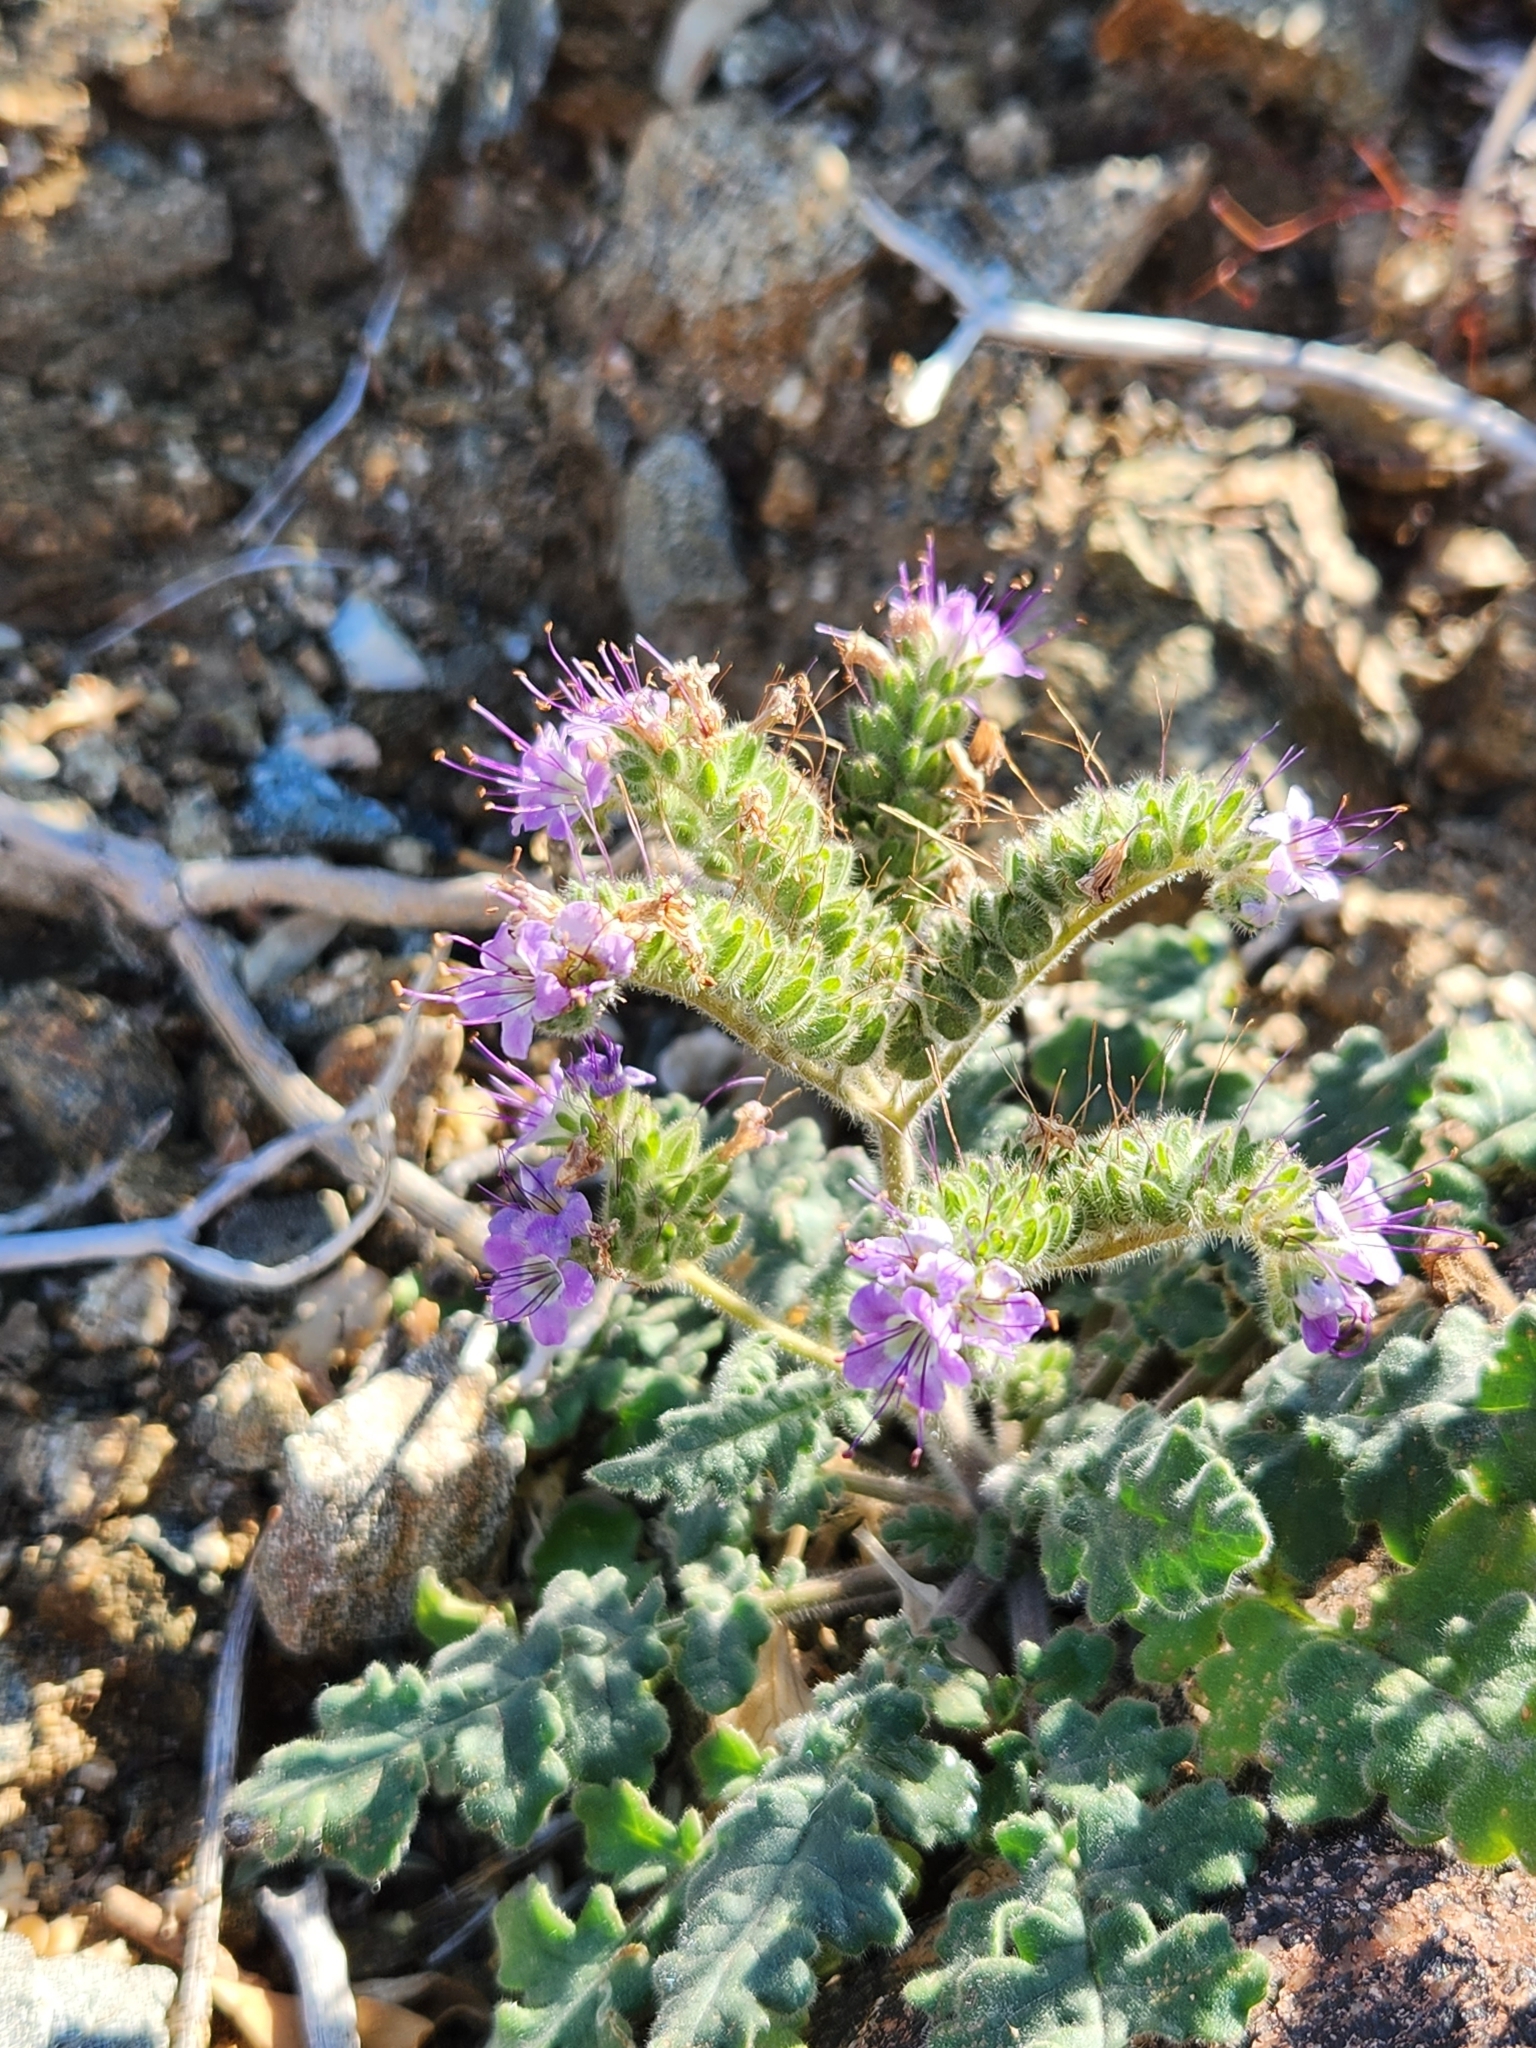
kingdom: Plantae
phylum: Tracheophyta
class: Magnoliopsida
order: Boraginales
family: Hydrophyllaceae
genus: Phacelia
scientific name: Phacelia crenulata
